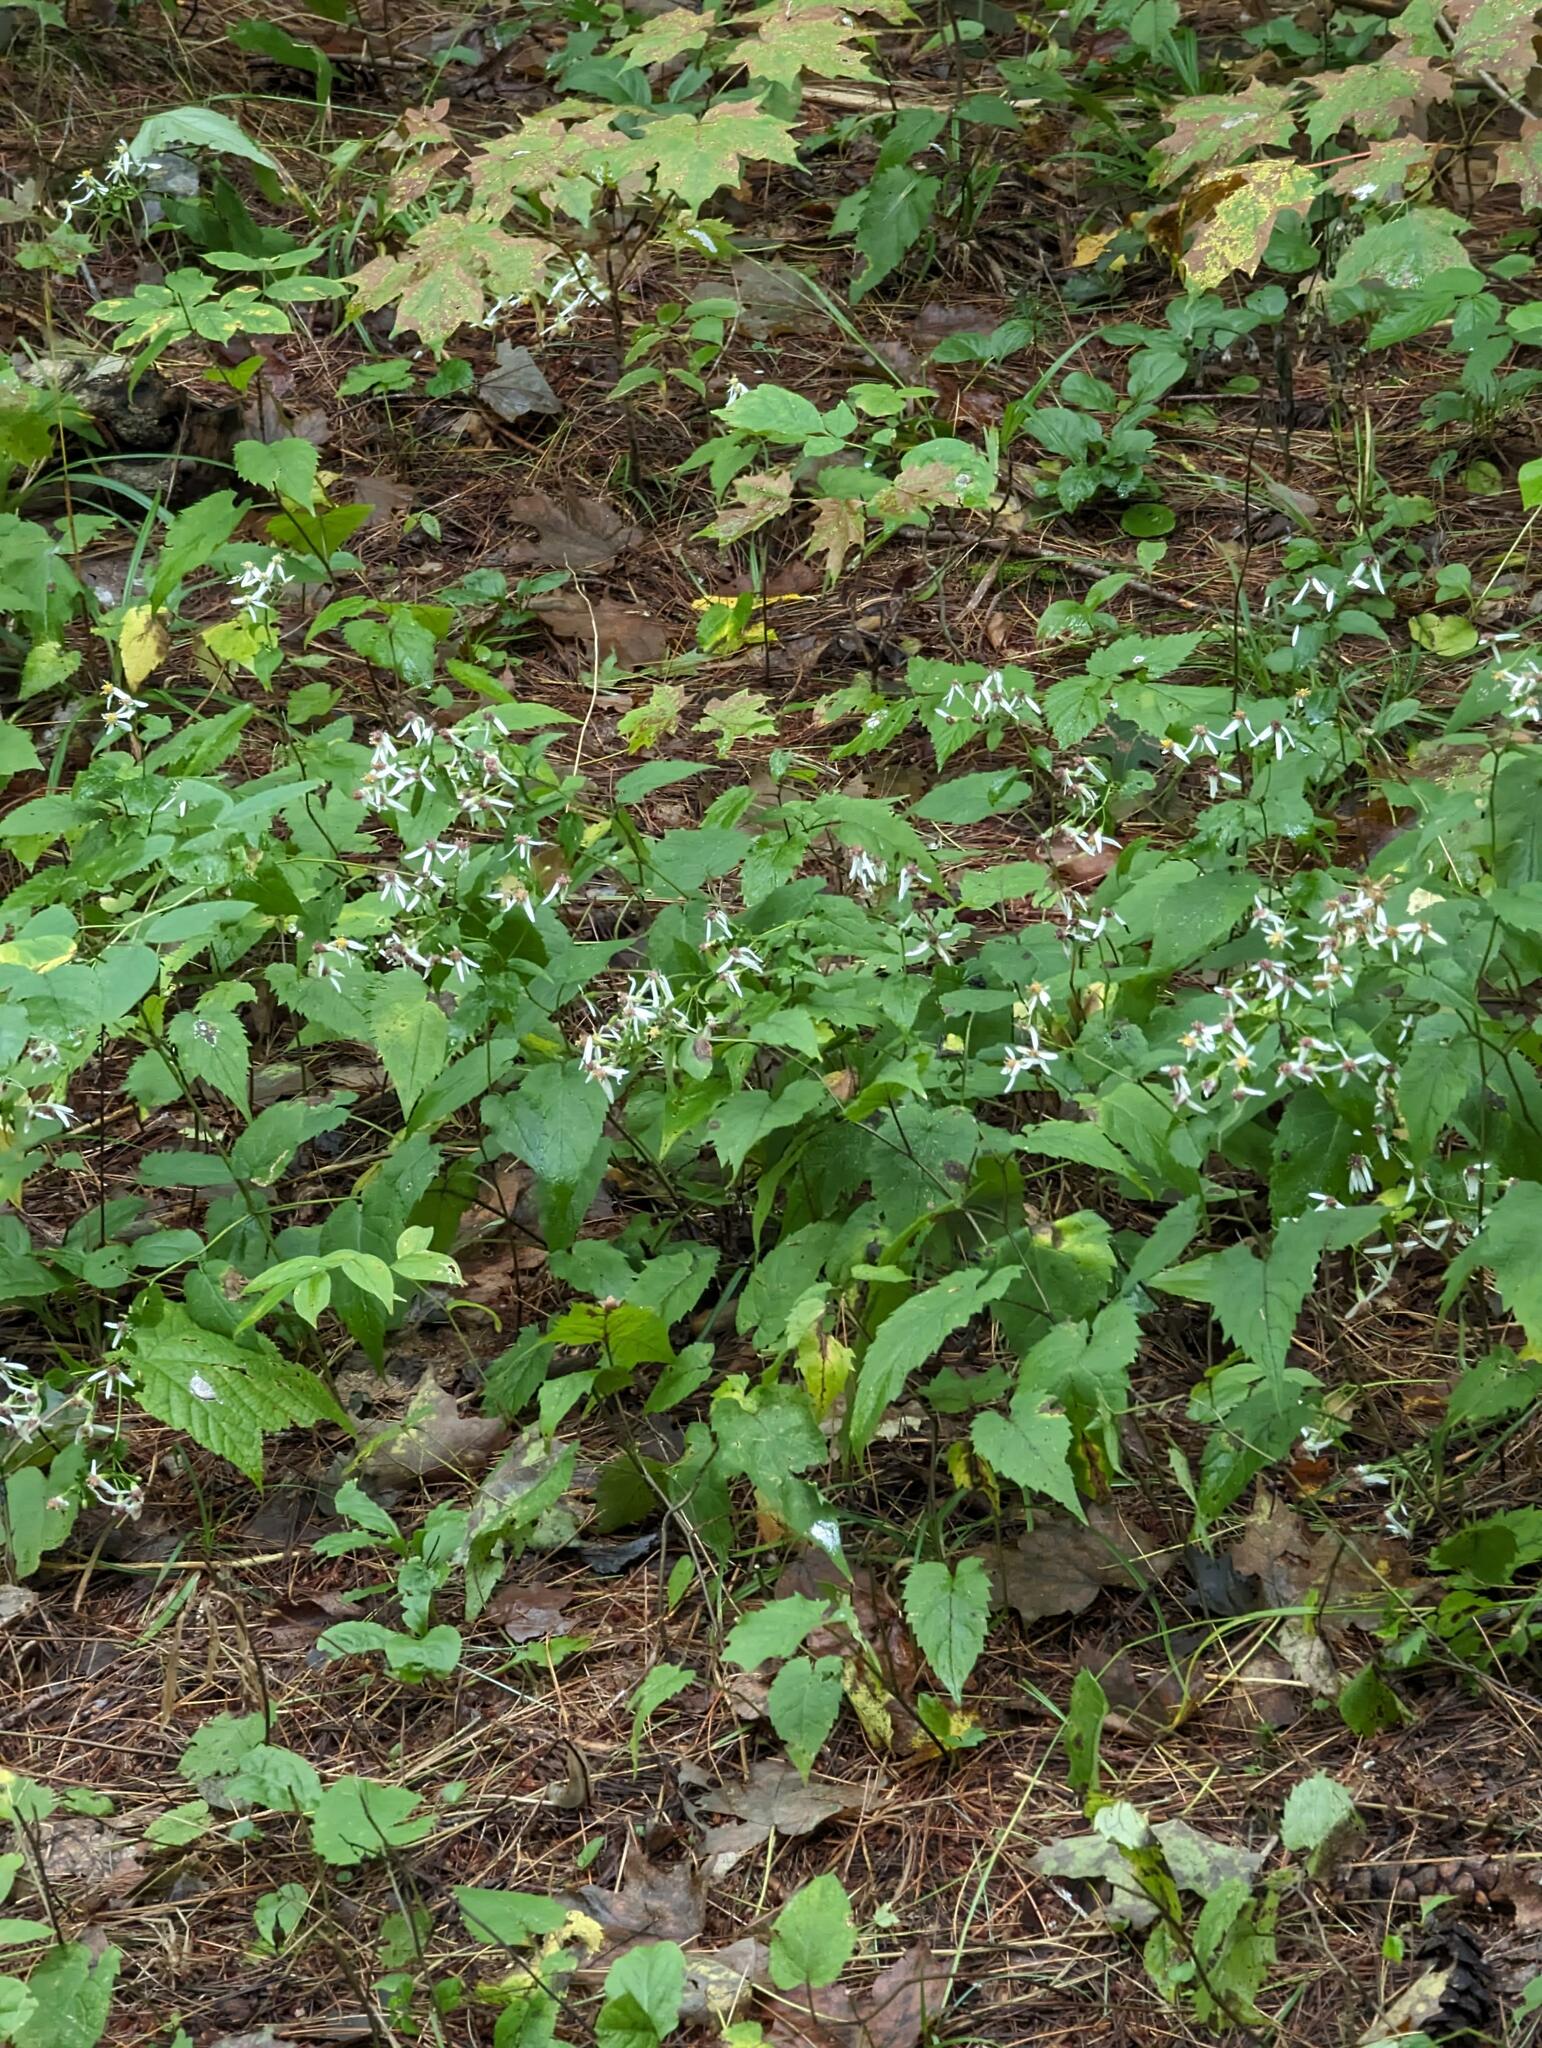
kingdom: Plantae
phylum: Tracheophyta
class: Magnoliopsida
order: Asterales
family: Asteraceae
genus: Eurybia
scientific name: Eurybia divaricata
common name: White wood aster
